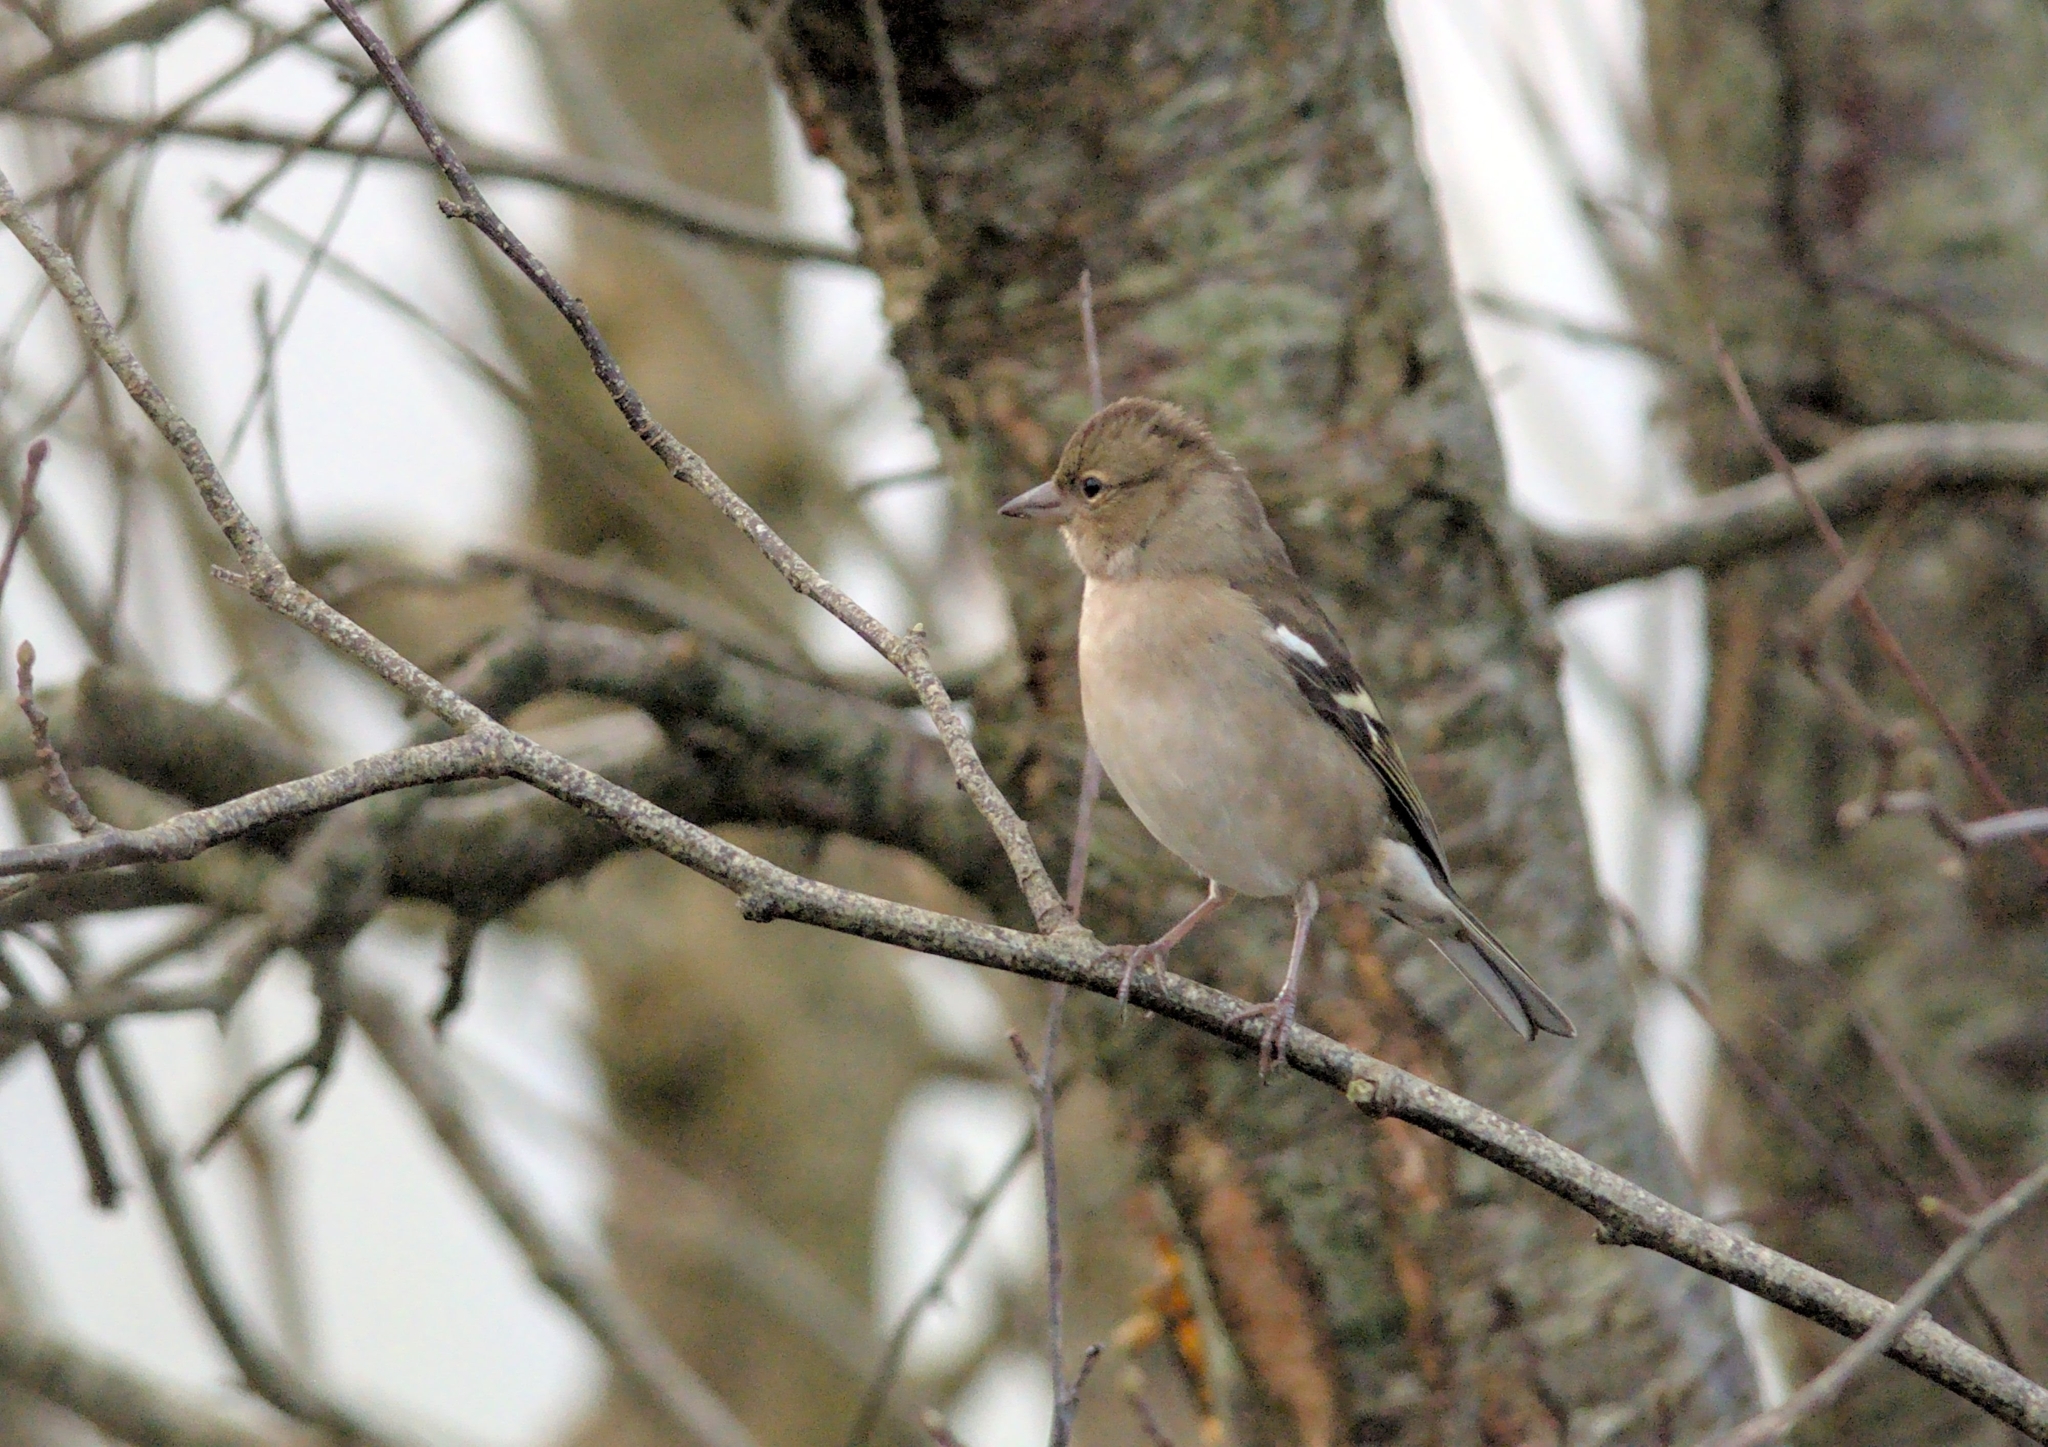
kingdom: Animalia
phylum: Chordata
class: Aves
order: Passeriformes
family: Fringillidae
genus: Fringilla
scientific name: Fringilla coelebs
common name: Common chaffinch
